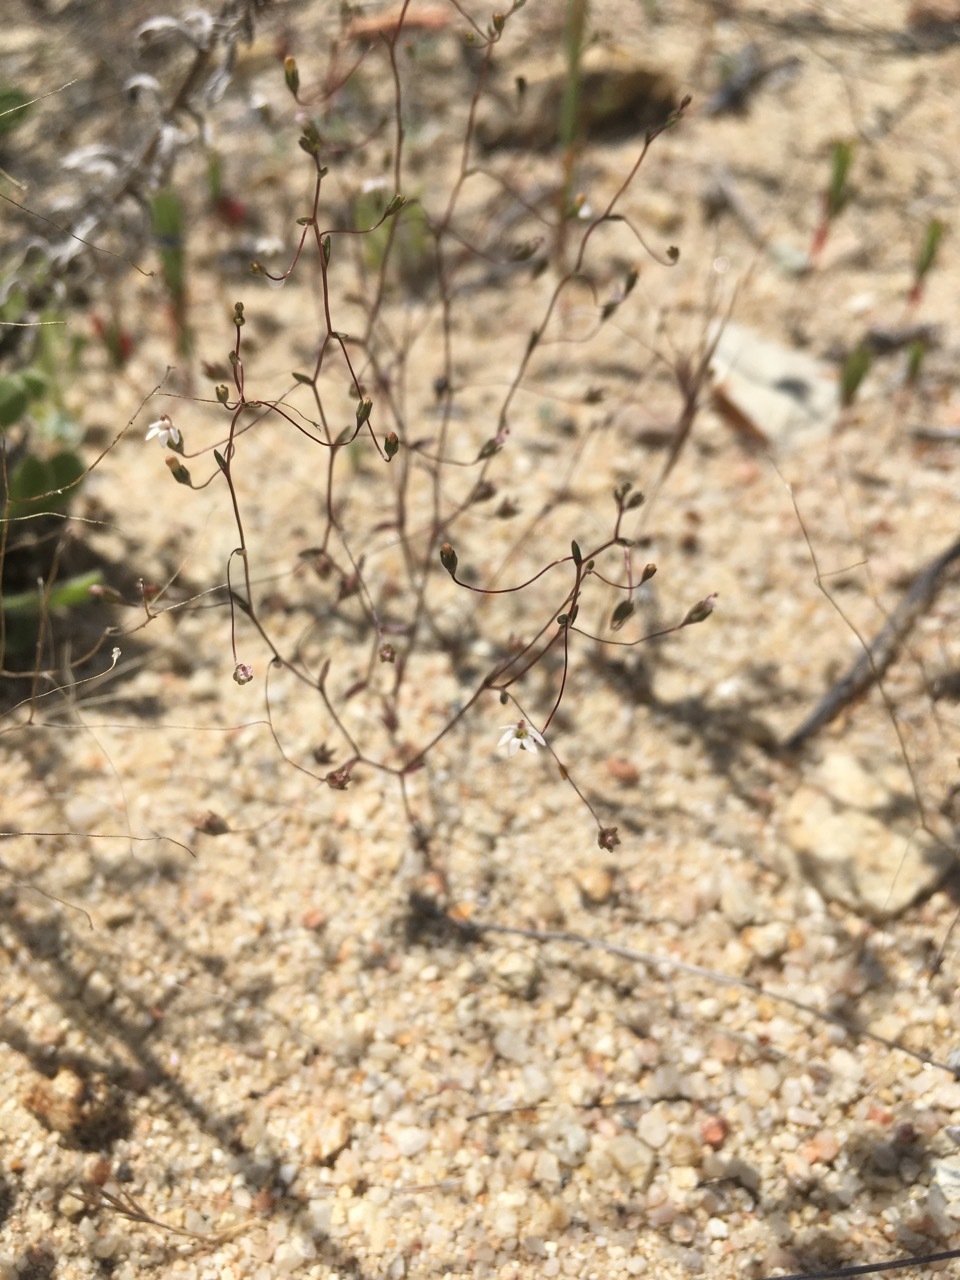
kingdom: Plantae
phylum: Tracheophyta
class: Magnoliopsida
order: Asterales
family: Campanulaceae
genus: Nemacladus
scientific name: Nemacladus secundiflorus
